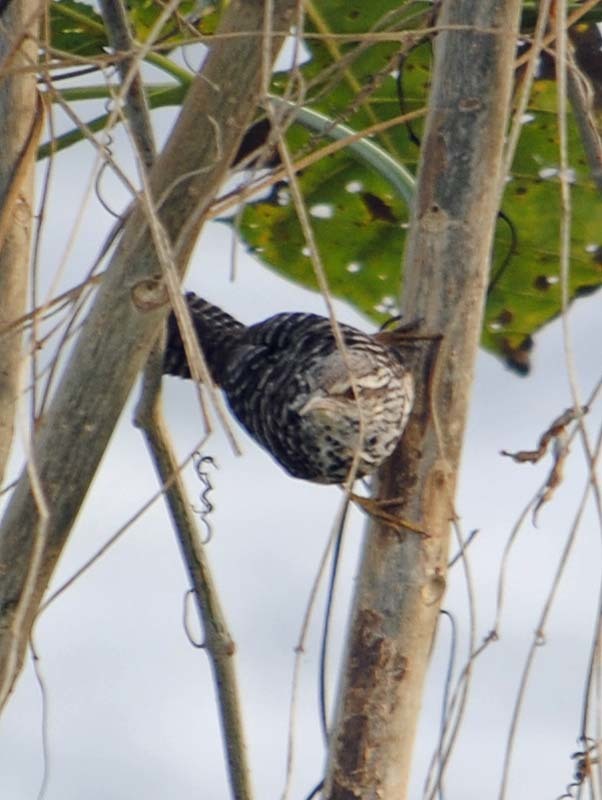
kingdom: Animalia
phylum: Chordata
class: Aves
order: Passeriformes
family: Troglodytidae
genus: Campylorhynchus
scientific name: Campylorhynchus zonatus
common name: Band-backed wren
